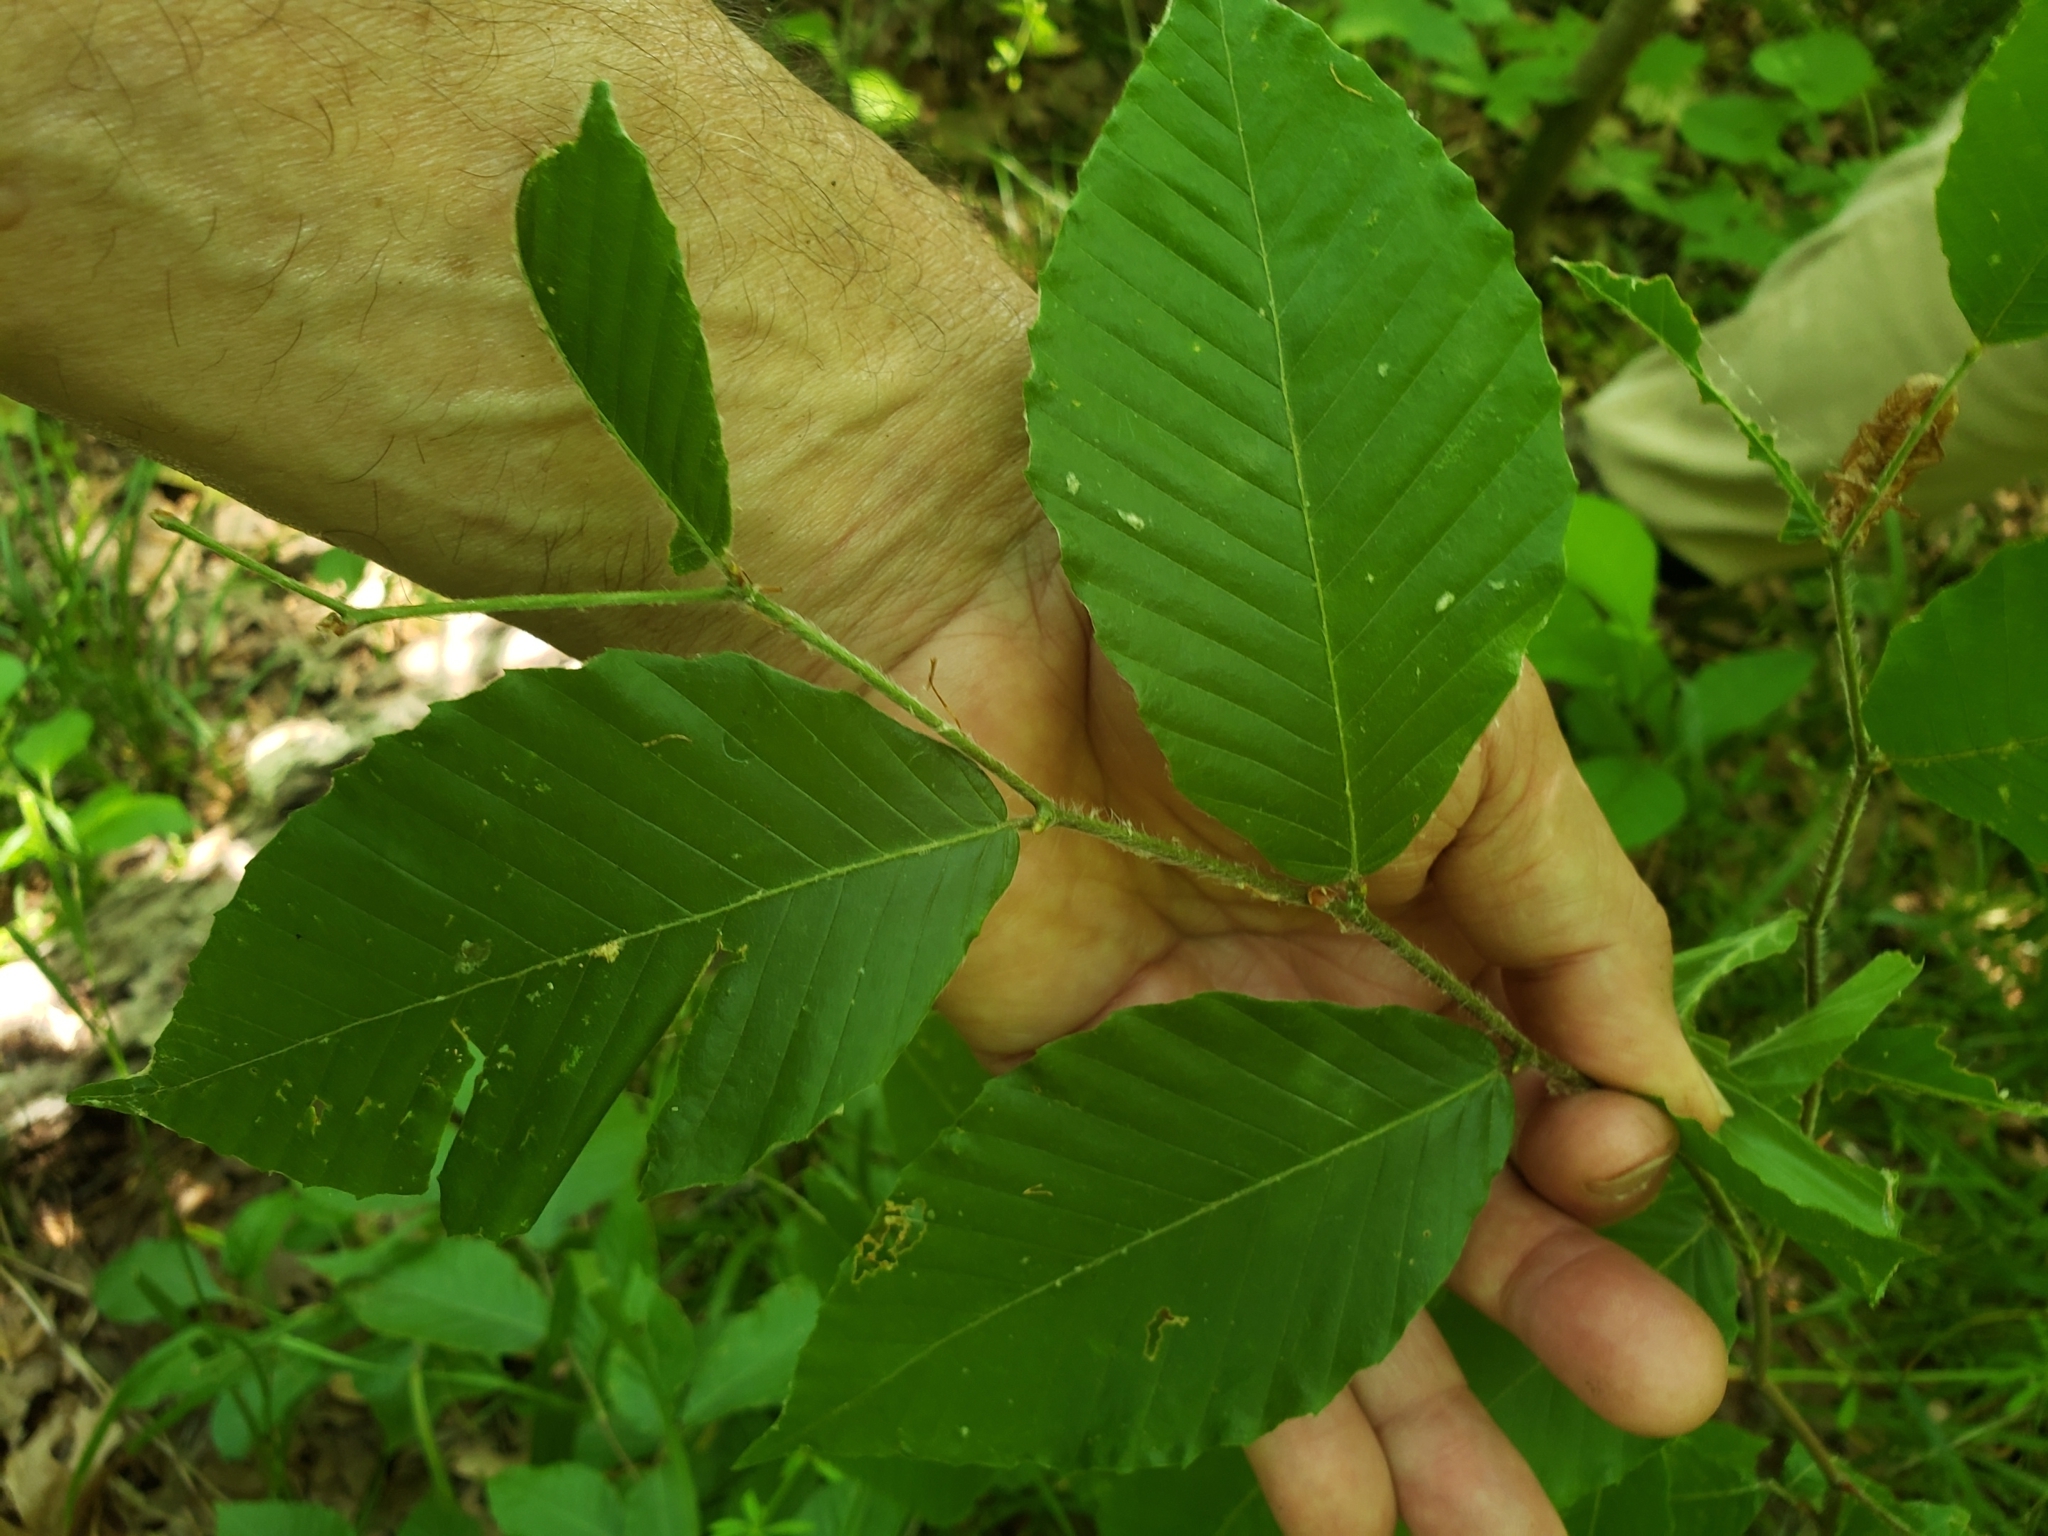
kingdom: Animalia
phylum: Arthropoda
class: Insecta
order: Diptera
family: Cecidomyiidae
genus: Dasineura
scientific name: Dasineura pudibunda
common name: Hornbeam leaf gall midge
